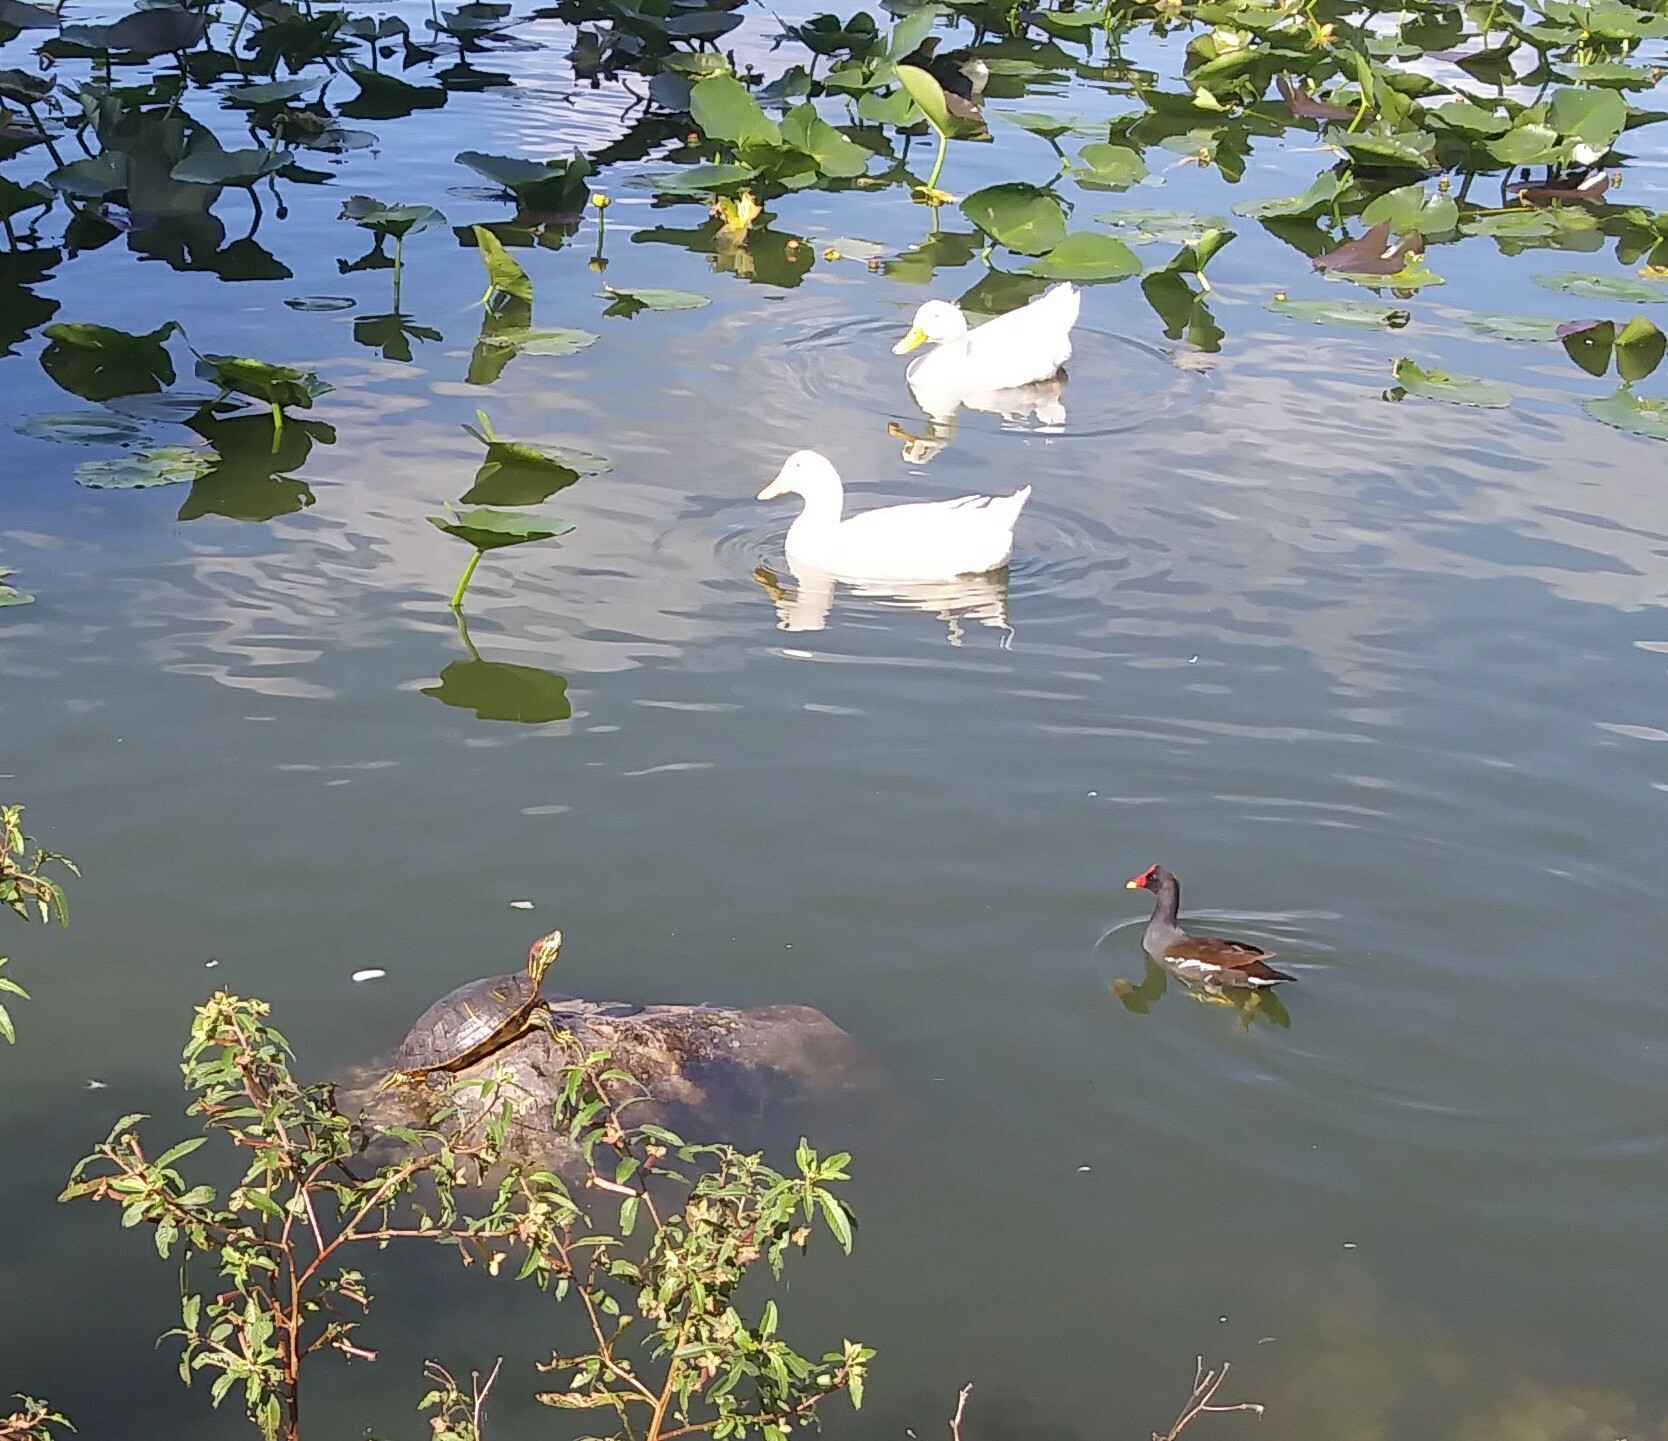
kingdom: Animalia
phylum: Chordata
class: Testudines
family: Emydidae
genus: Trachemys
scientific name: Trachemys scripta
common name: Slider
